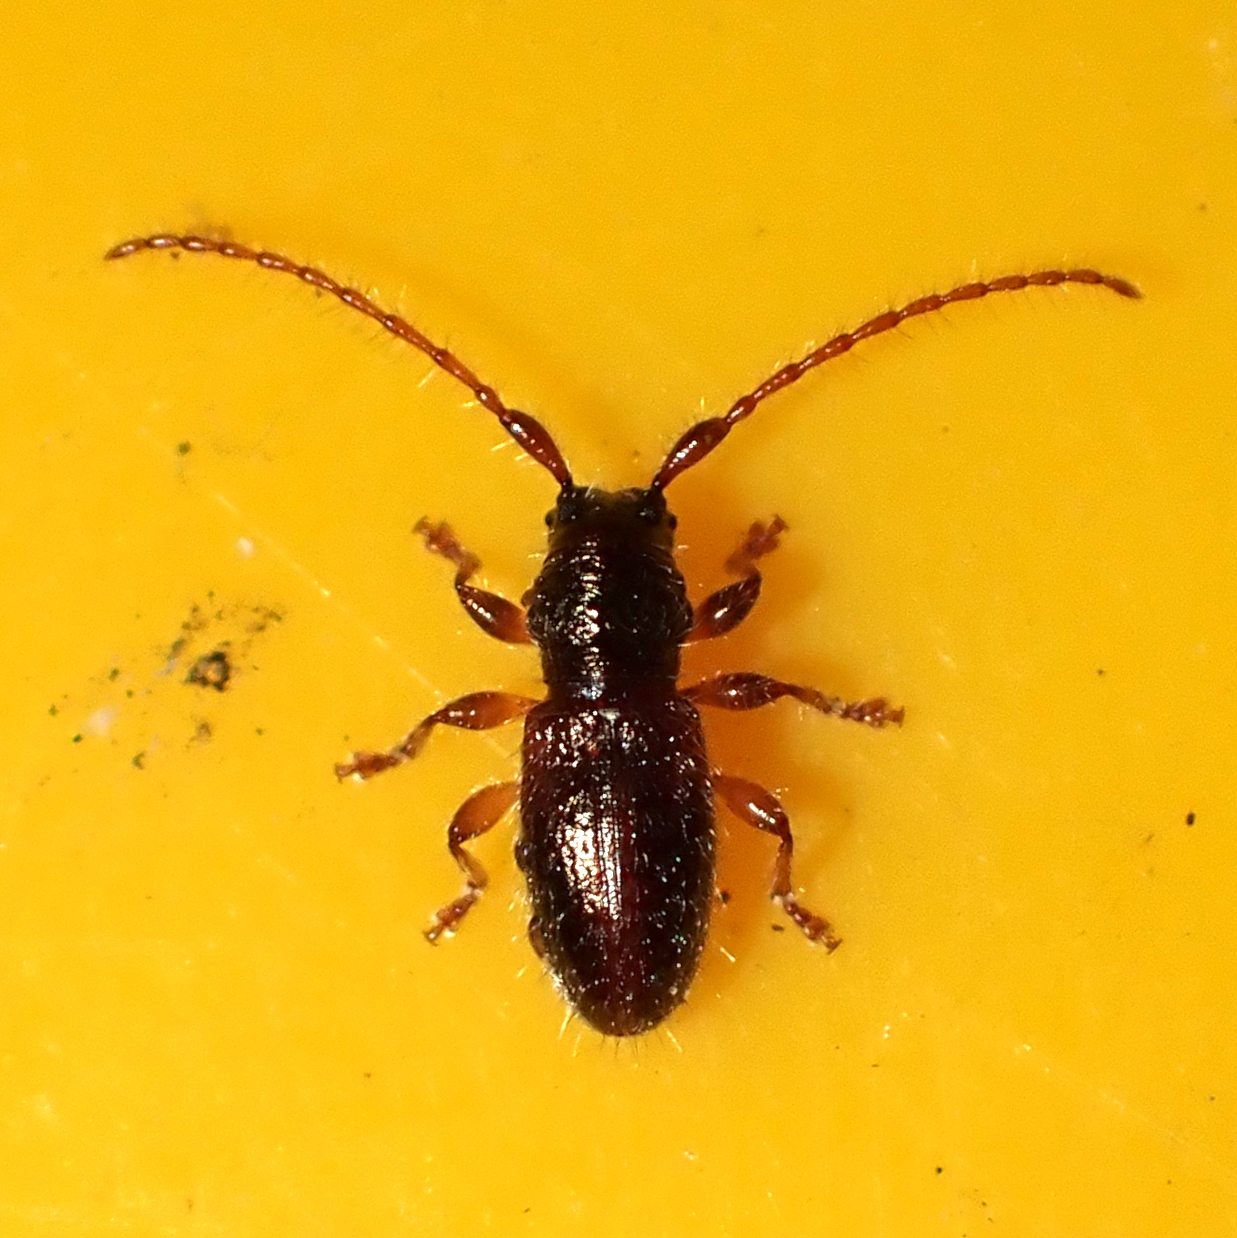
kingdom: Animalia
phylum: Arthropoda
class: Insecta
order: Coleoptera
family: Cerambycidae
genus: Microlamia
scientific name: Microlamia pygmaea
